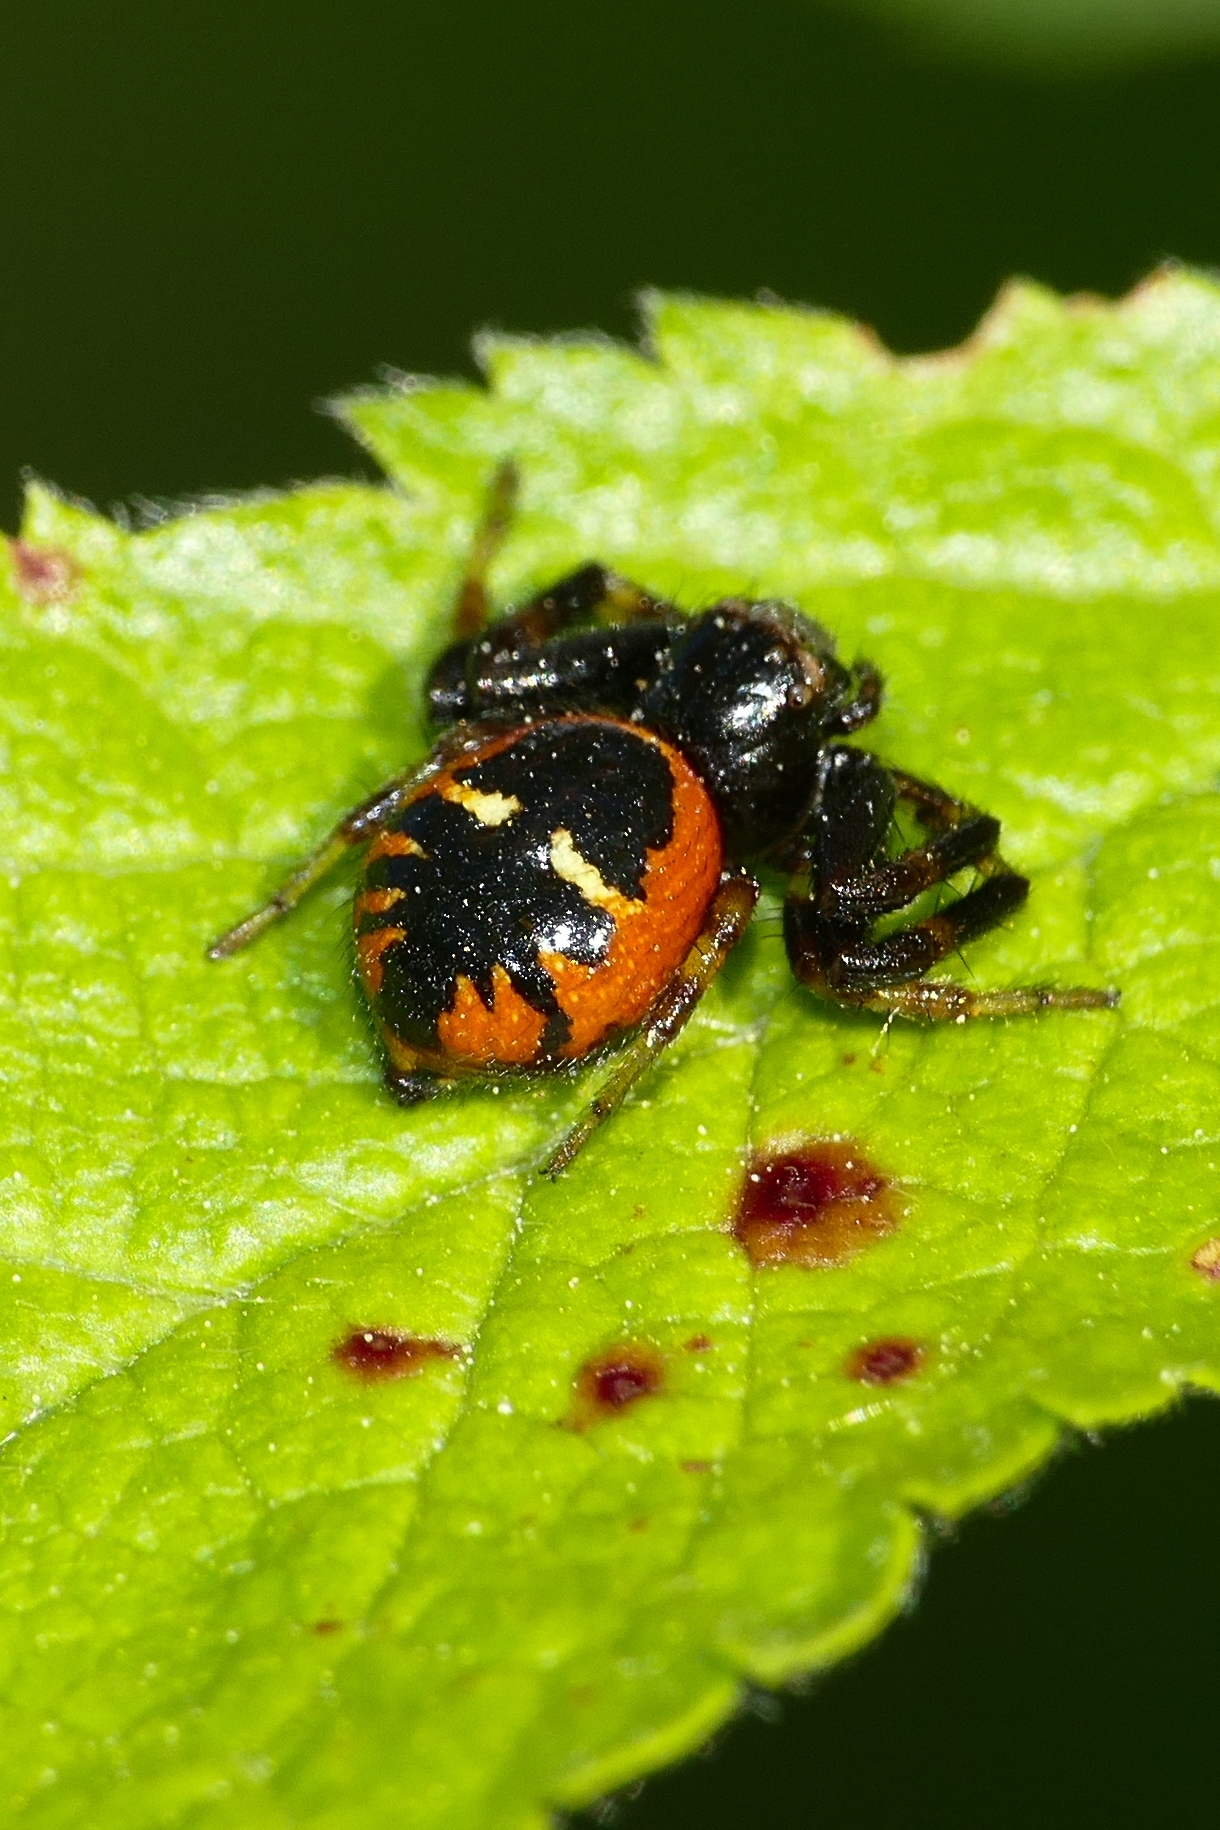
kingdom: Animalia
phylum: Arthropoda
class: Arachnida
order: Araneae
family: Thomisidae
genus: Synema
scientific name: Synema globosum
